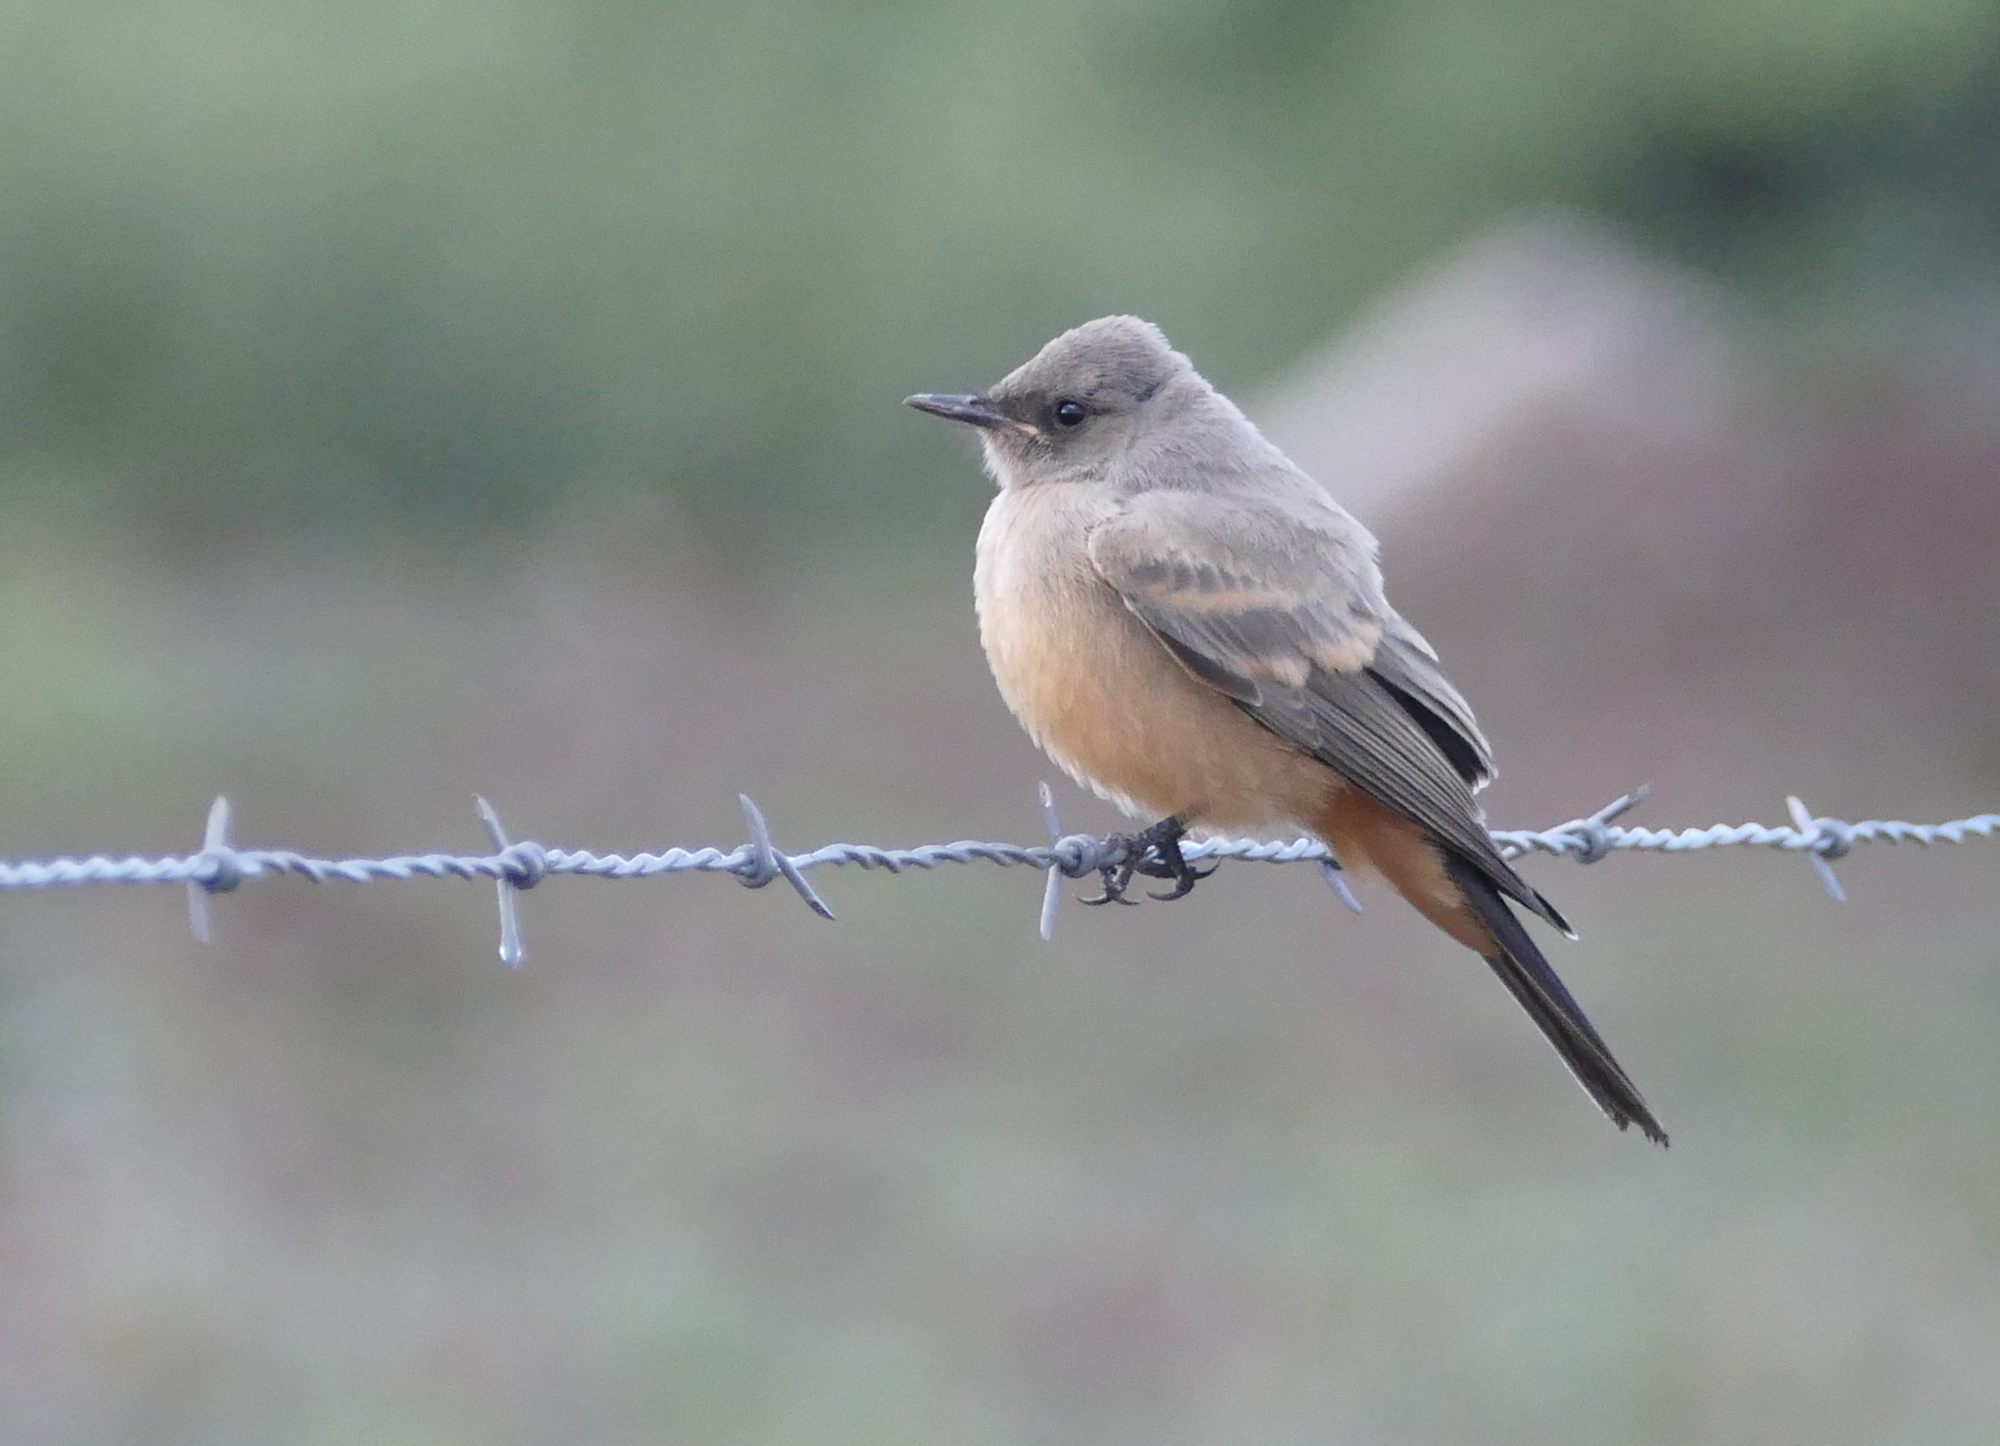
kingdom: Animalia
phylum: Chordata
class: Aves
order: Passeriformes
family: Tyrannidae
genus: Sayornis
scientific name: Sayornis saya
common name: Say's phoebe
